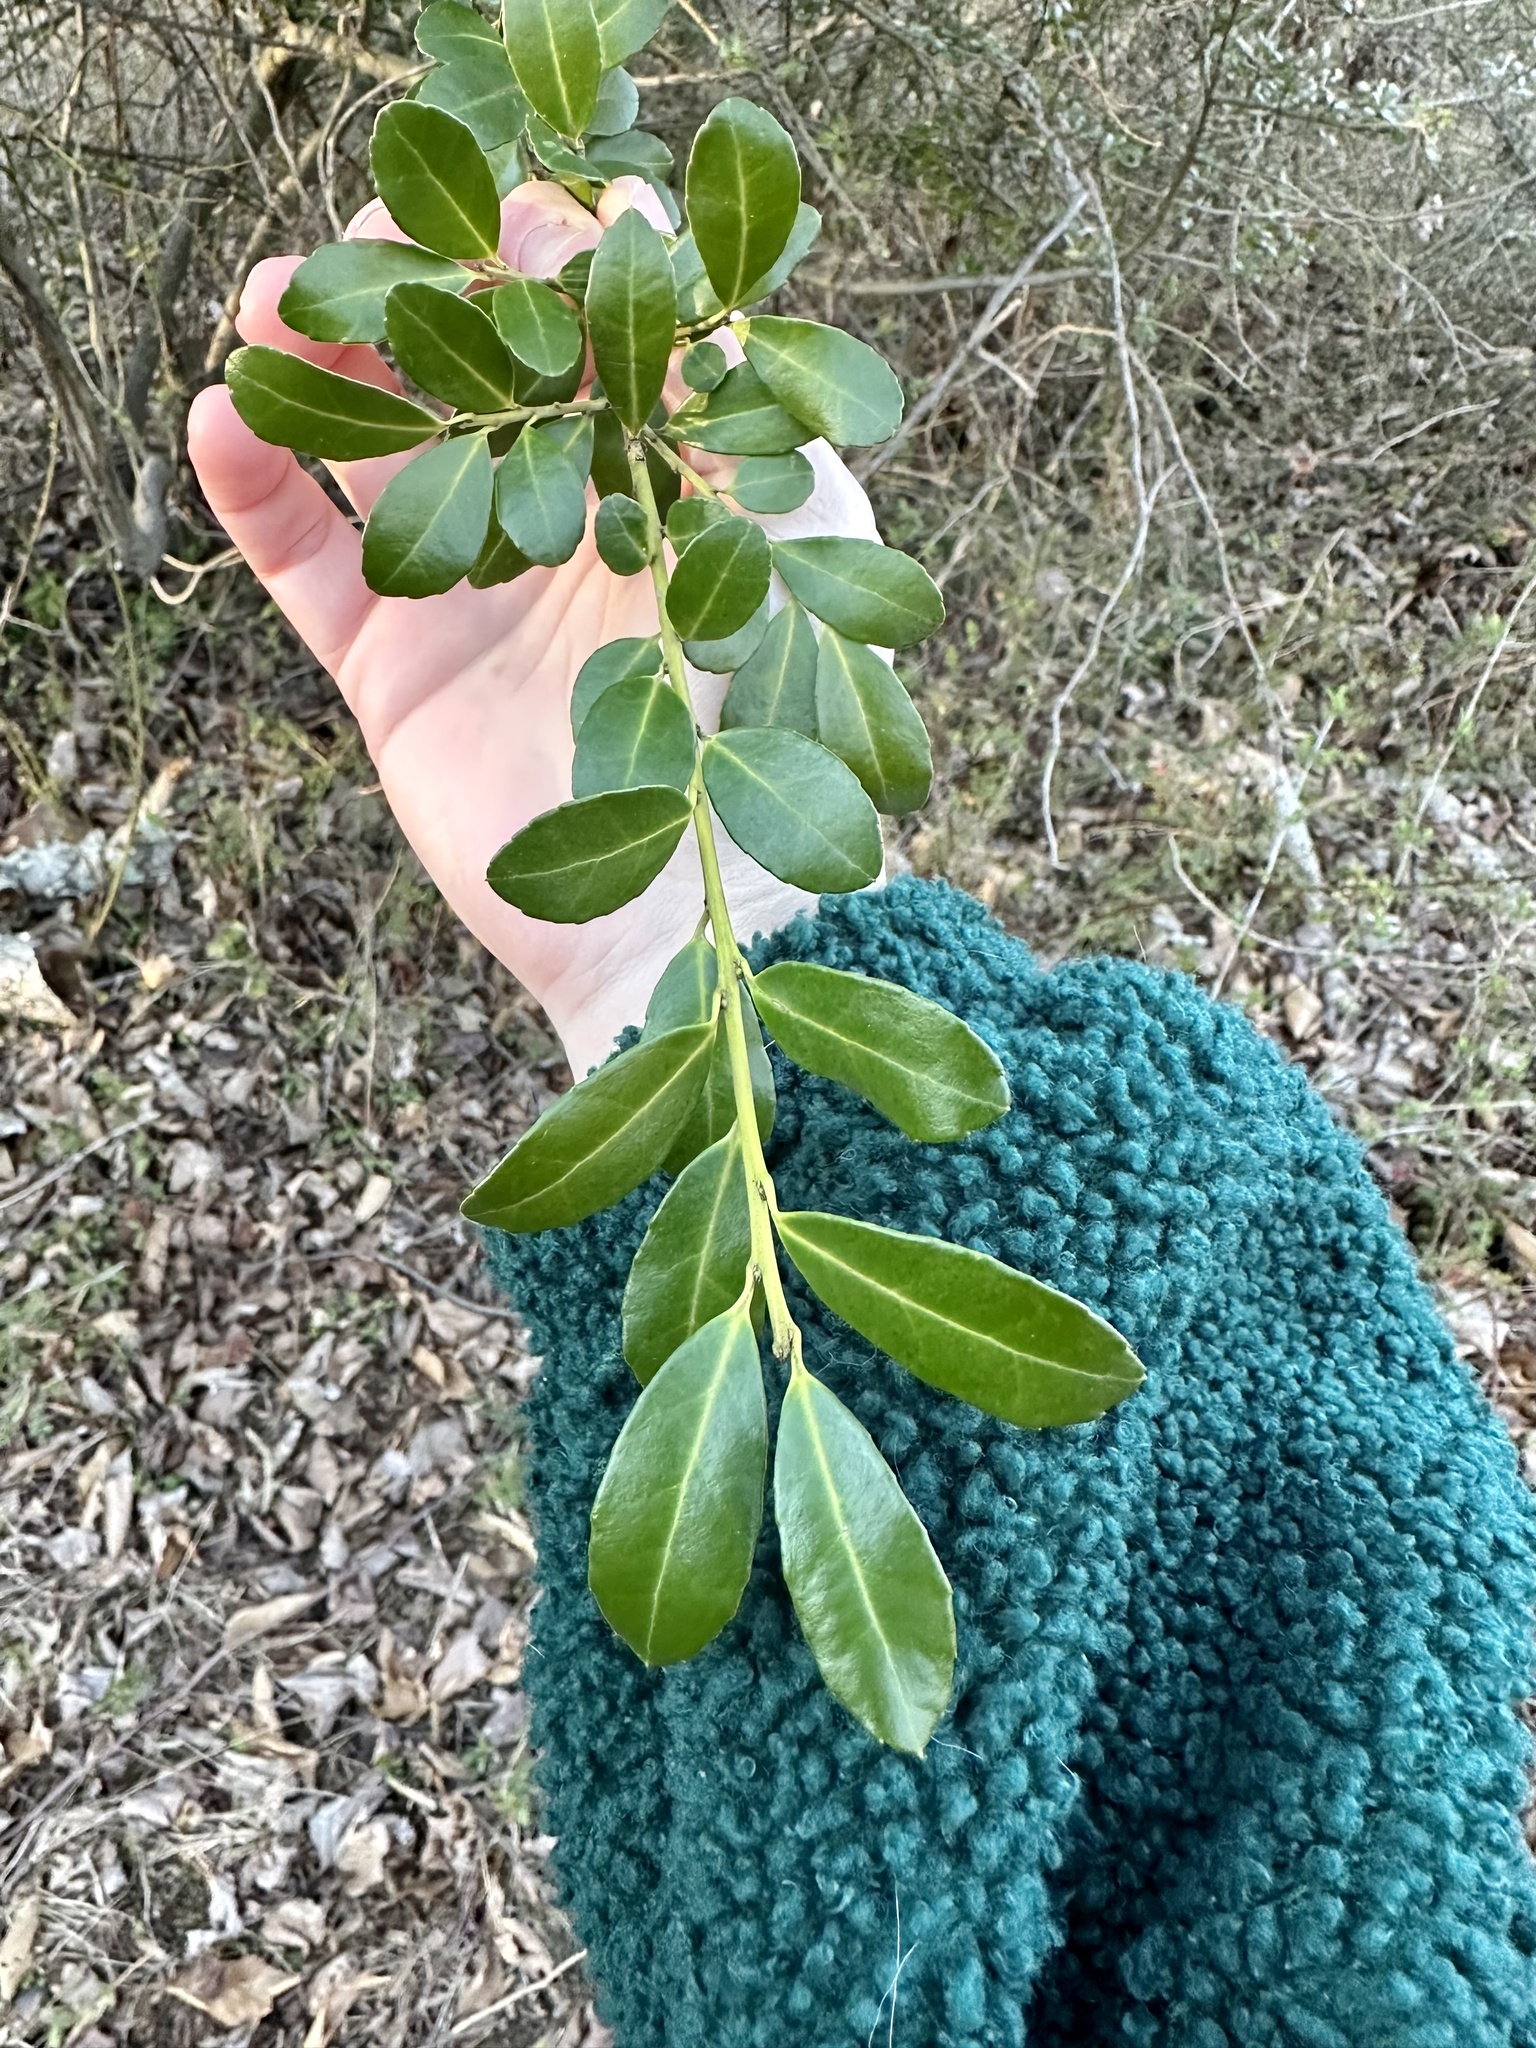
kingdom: Plantae
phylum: Tracheophyta
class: Magnoliopsida
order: Aquifoliales
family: Aquifoliaceae
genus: Ilex
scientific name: Ilex crenata
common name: Japanese holly
